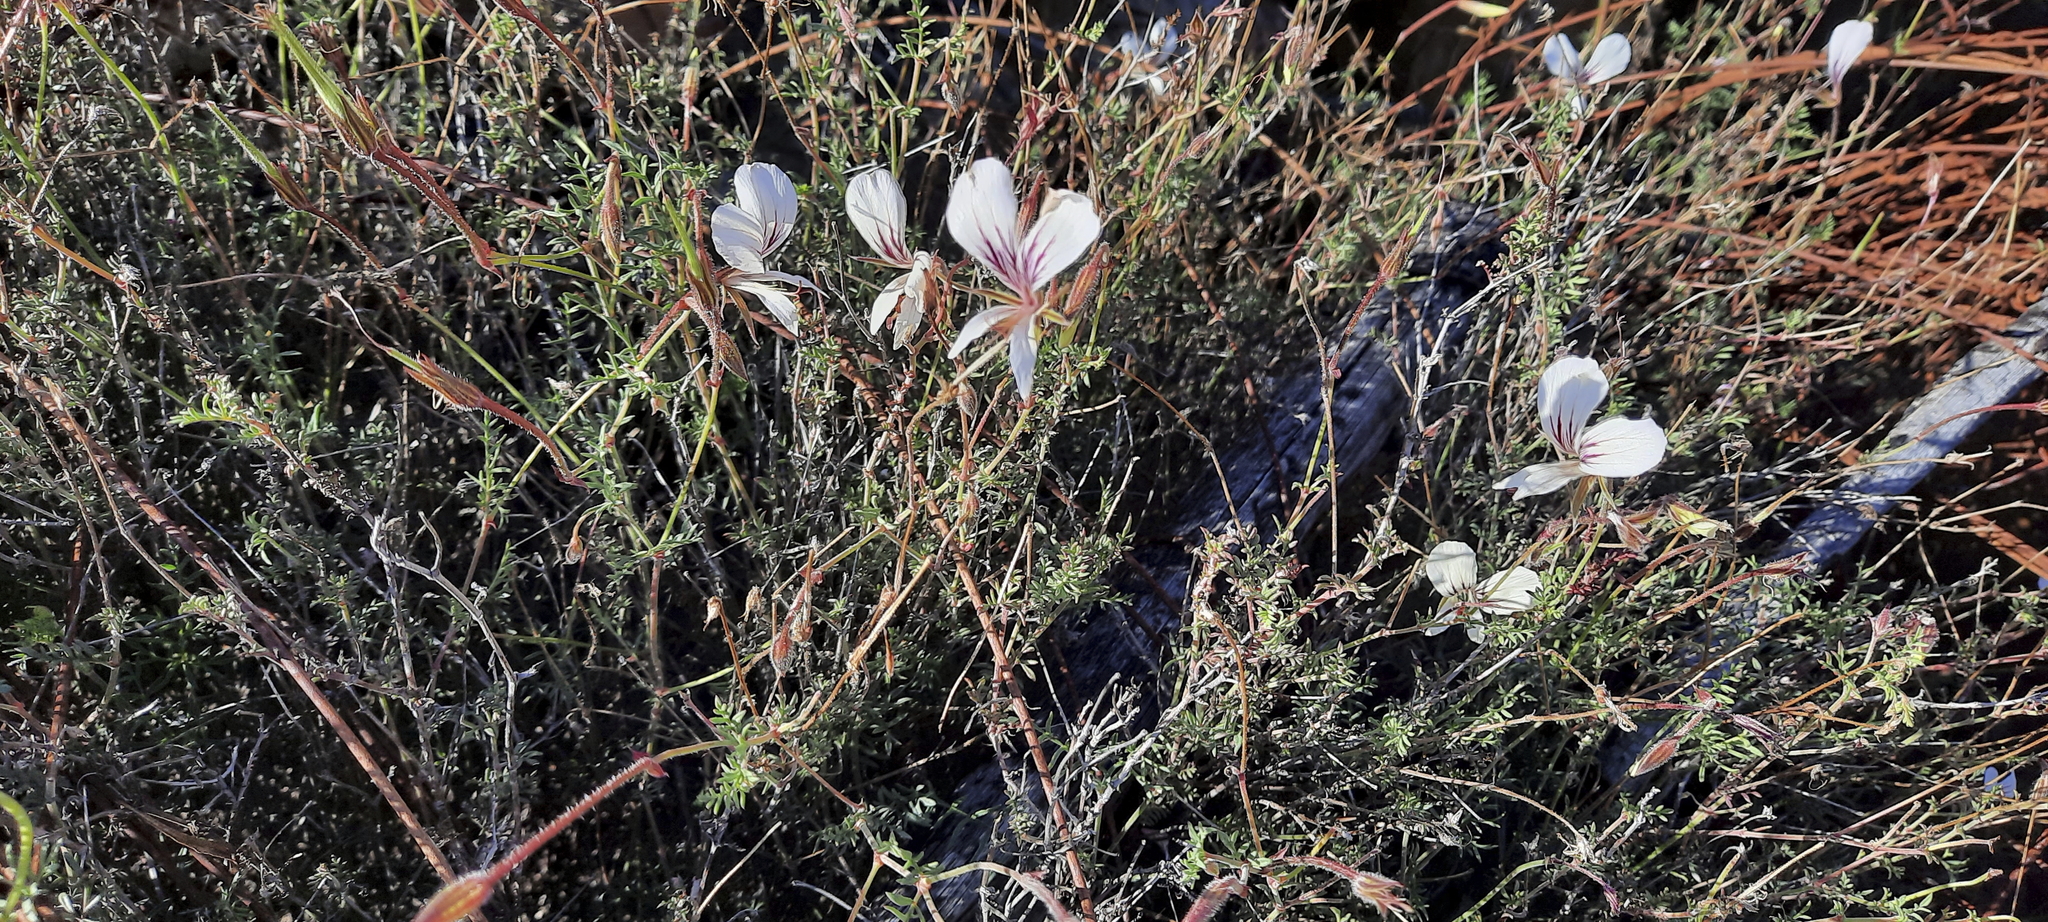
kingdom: Plantae
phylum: Tracheophyta
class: Magnoliopsida
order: Geraniales
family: Geraniaceae
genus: Pelargonium
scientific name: Pelargonium caucalifolium
